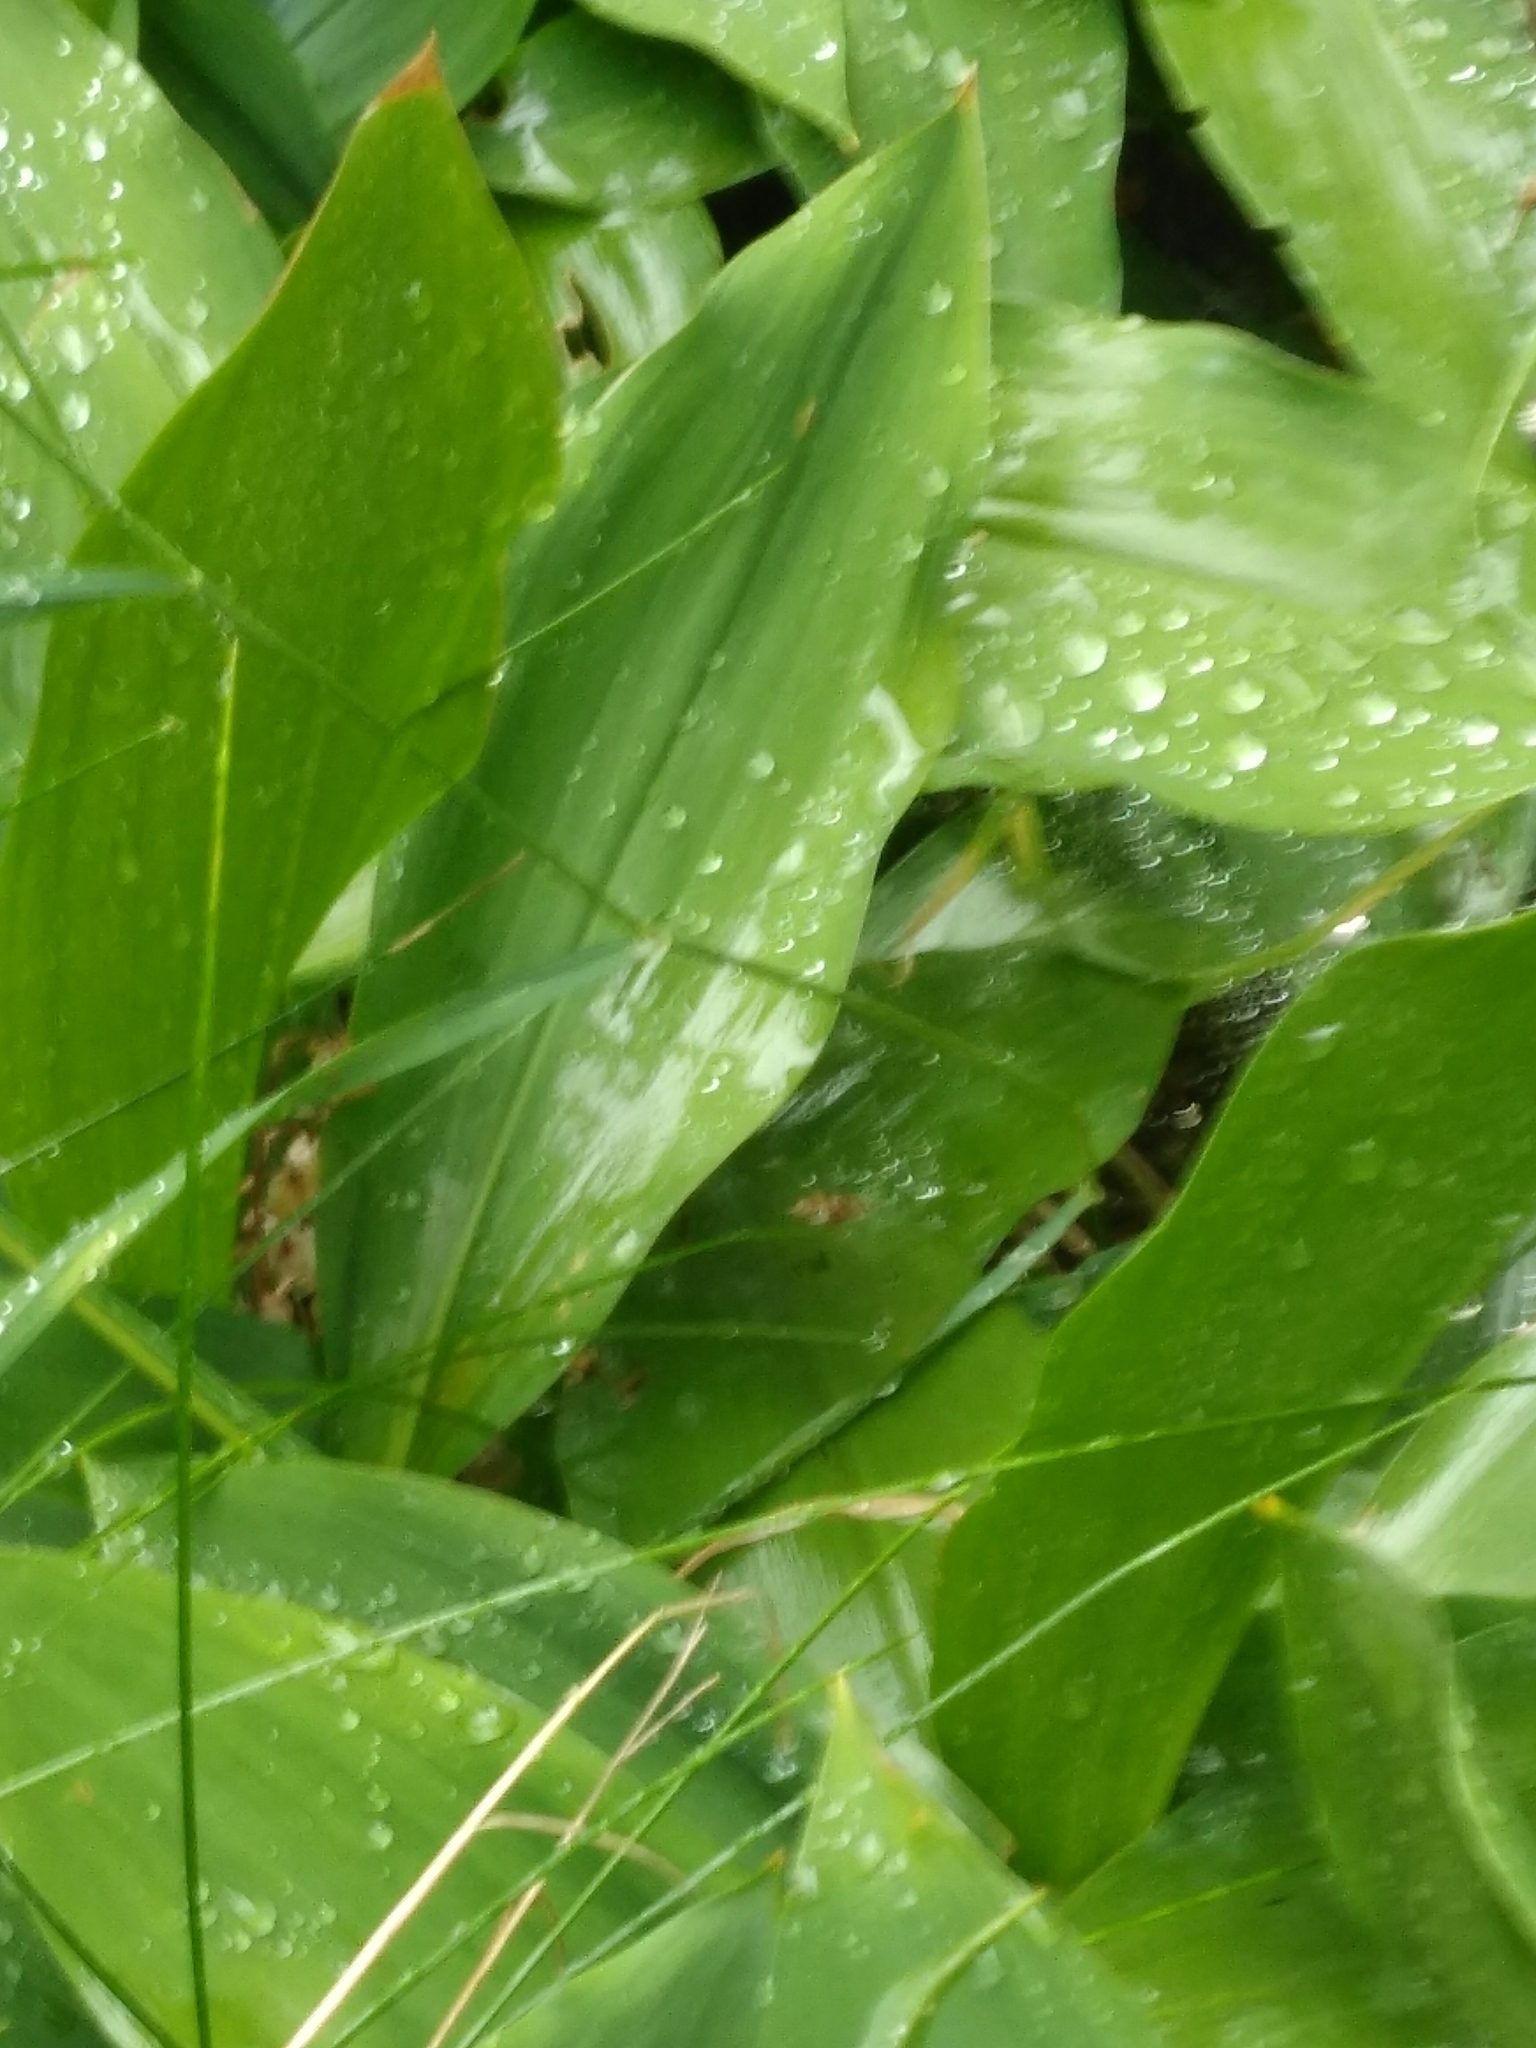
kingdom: Plantae
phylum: Tracheophyta
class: Liliopsida
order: Asparagales
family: Asparagaceae
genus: Convallaria
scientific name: Convallaria majalis
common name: Lily-of-the-valley
